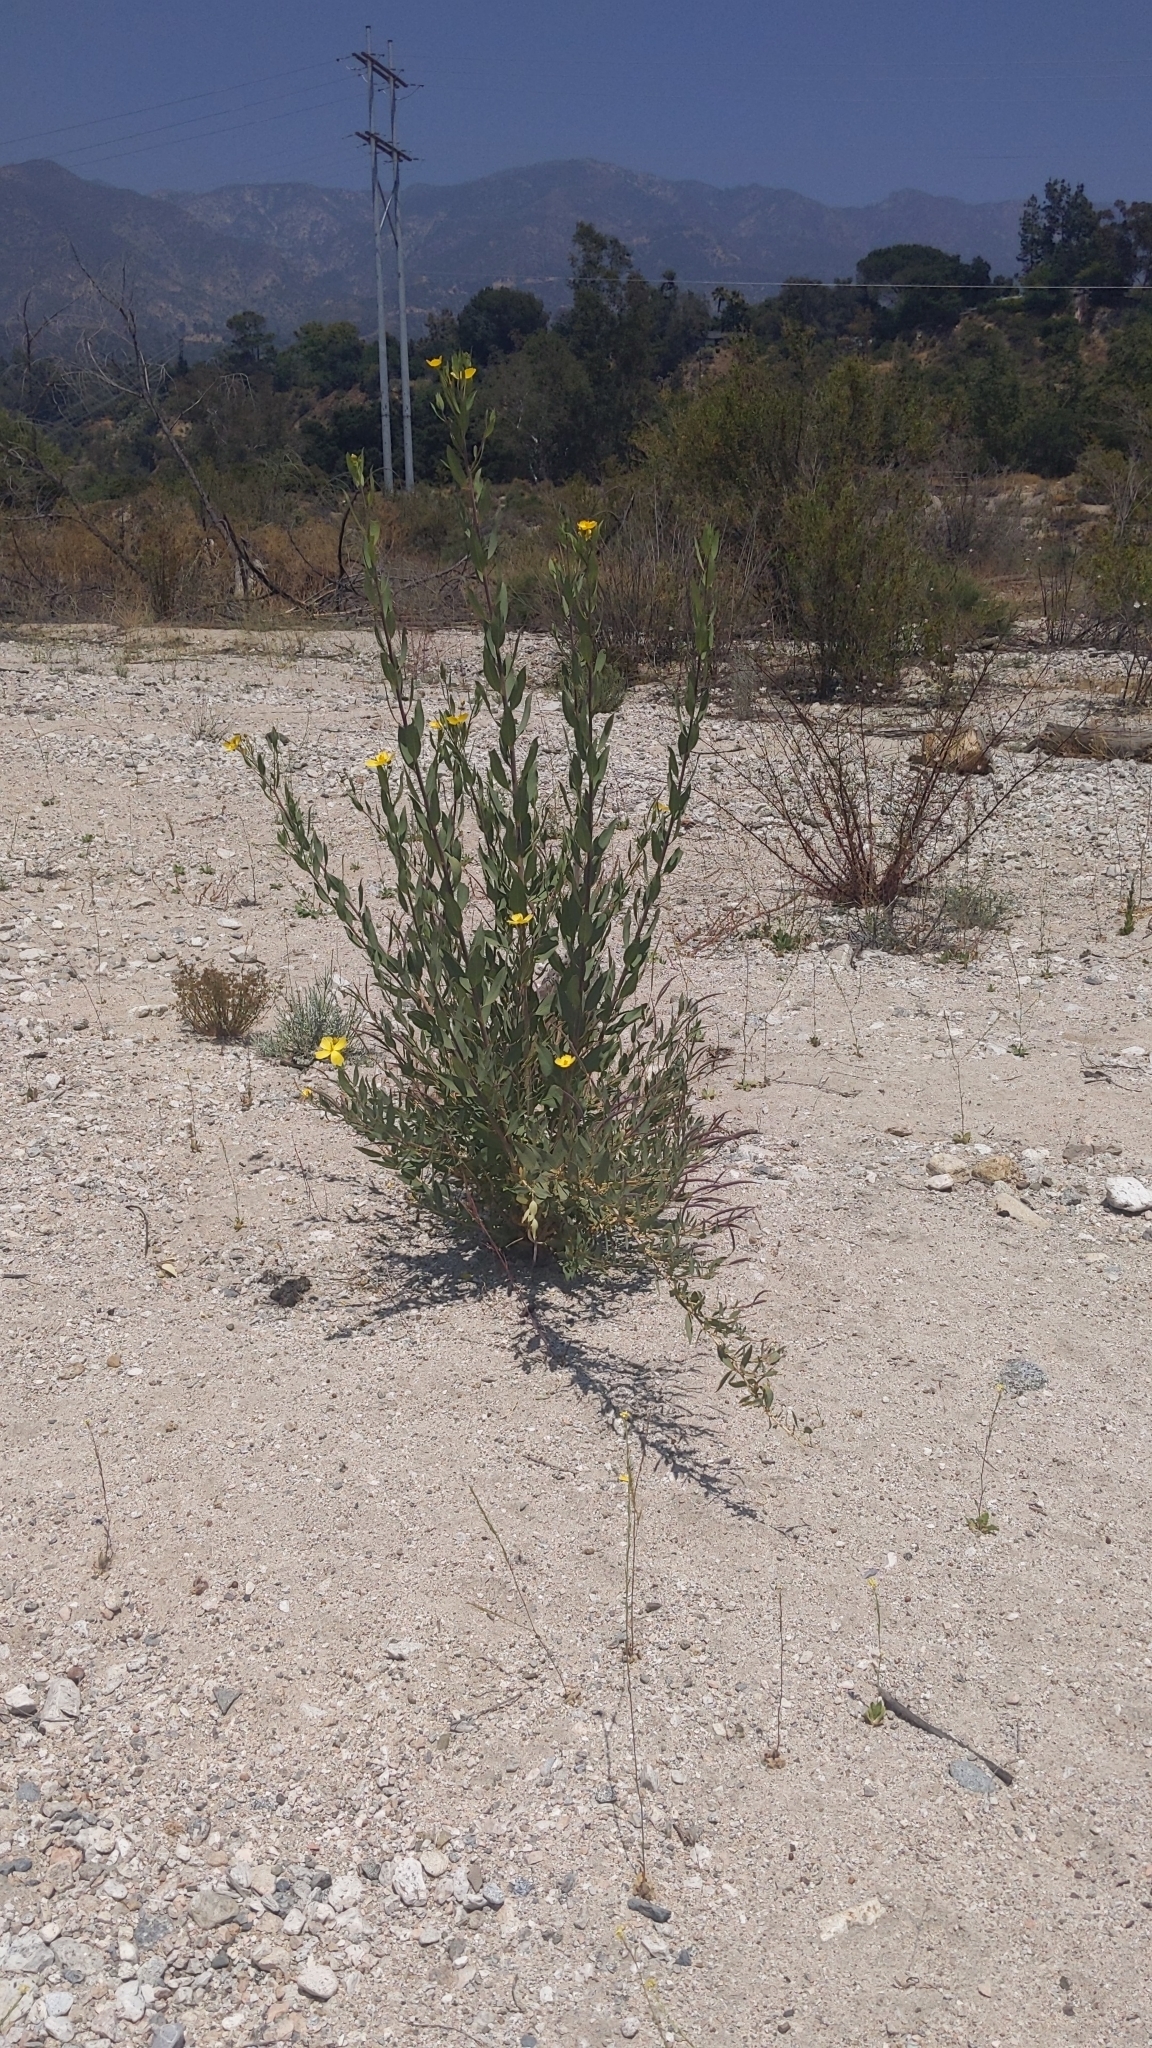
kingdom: Plantae
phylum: Tracheophyta
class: Magnoliopsida
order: Ranunculales
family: Papaveraceae
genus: Dendromecon
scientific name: Dendromecon rigida
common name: Tree poppy
